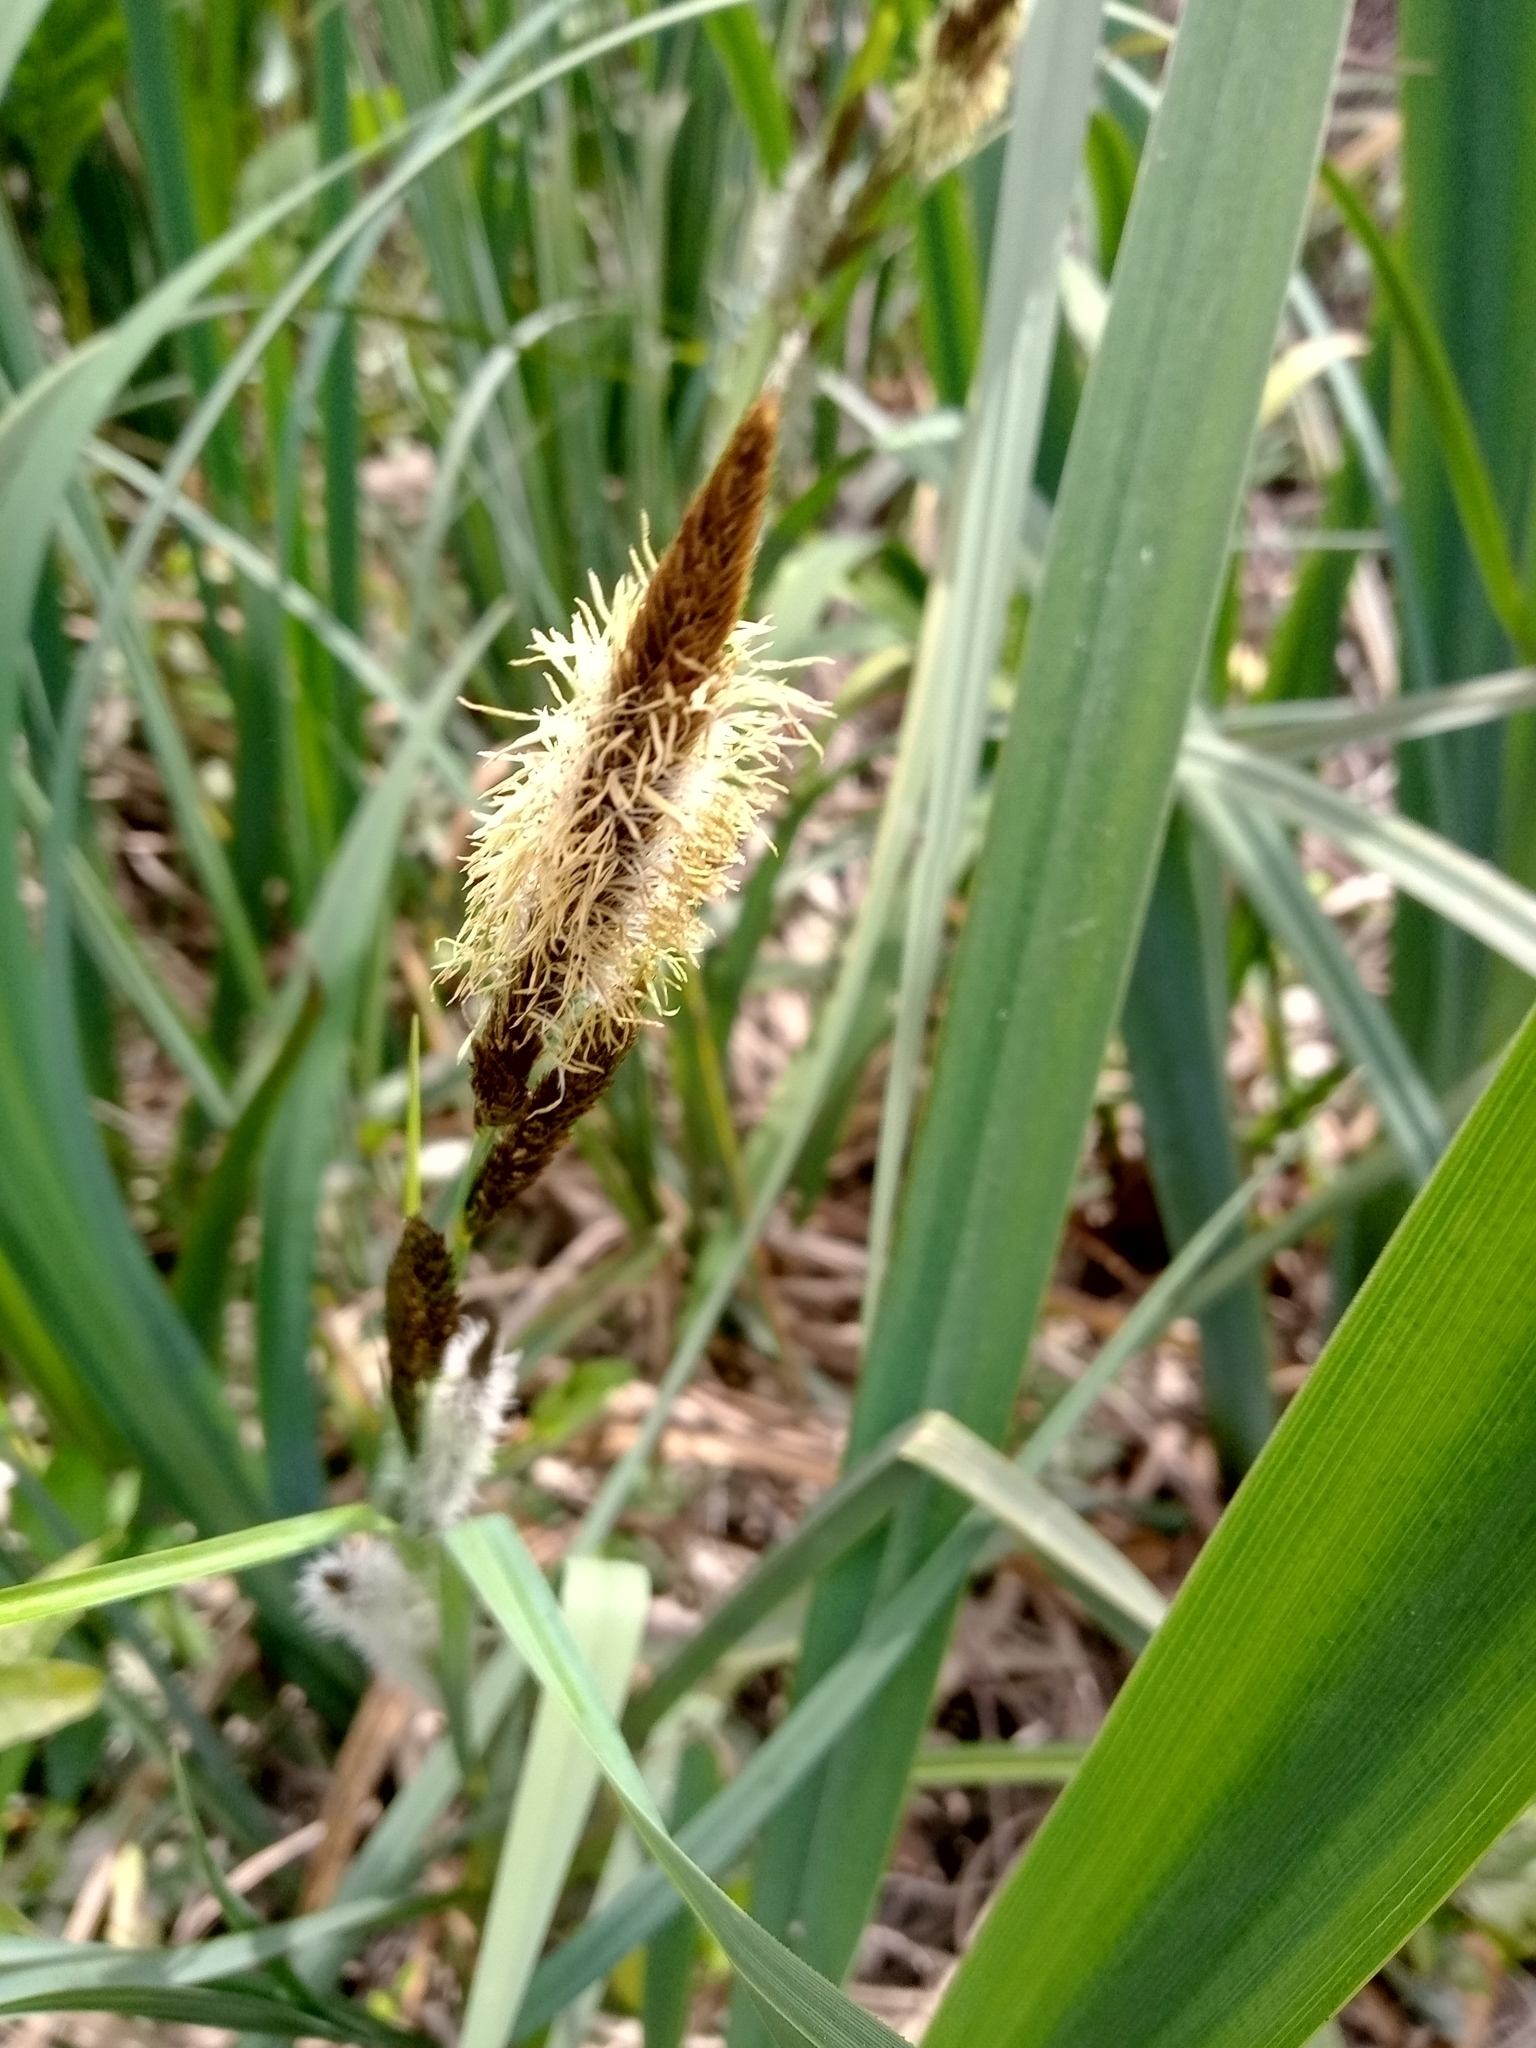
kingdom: Plantae
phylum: Tracheophyta
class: Liliopsida
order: Poales
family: Cyperaceae
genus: Carex
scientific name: Carex chilensis
